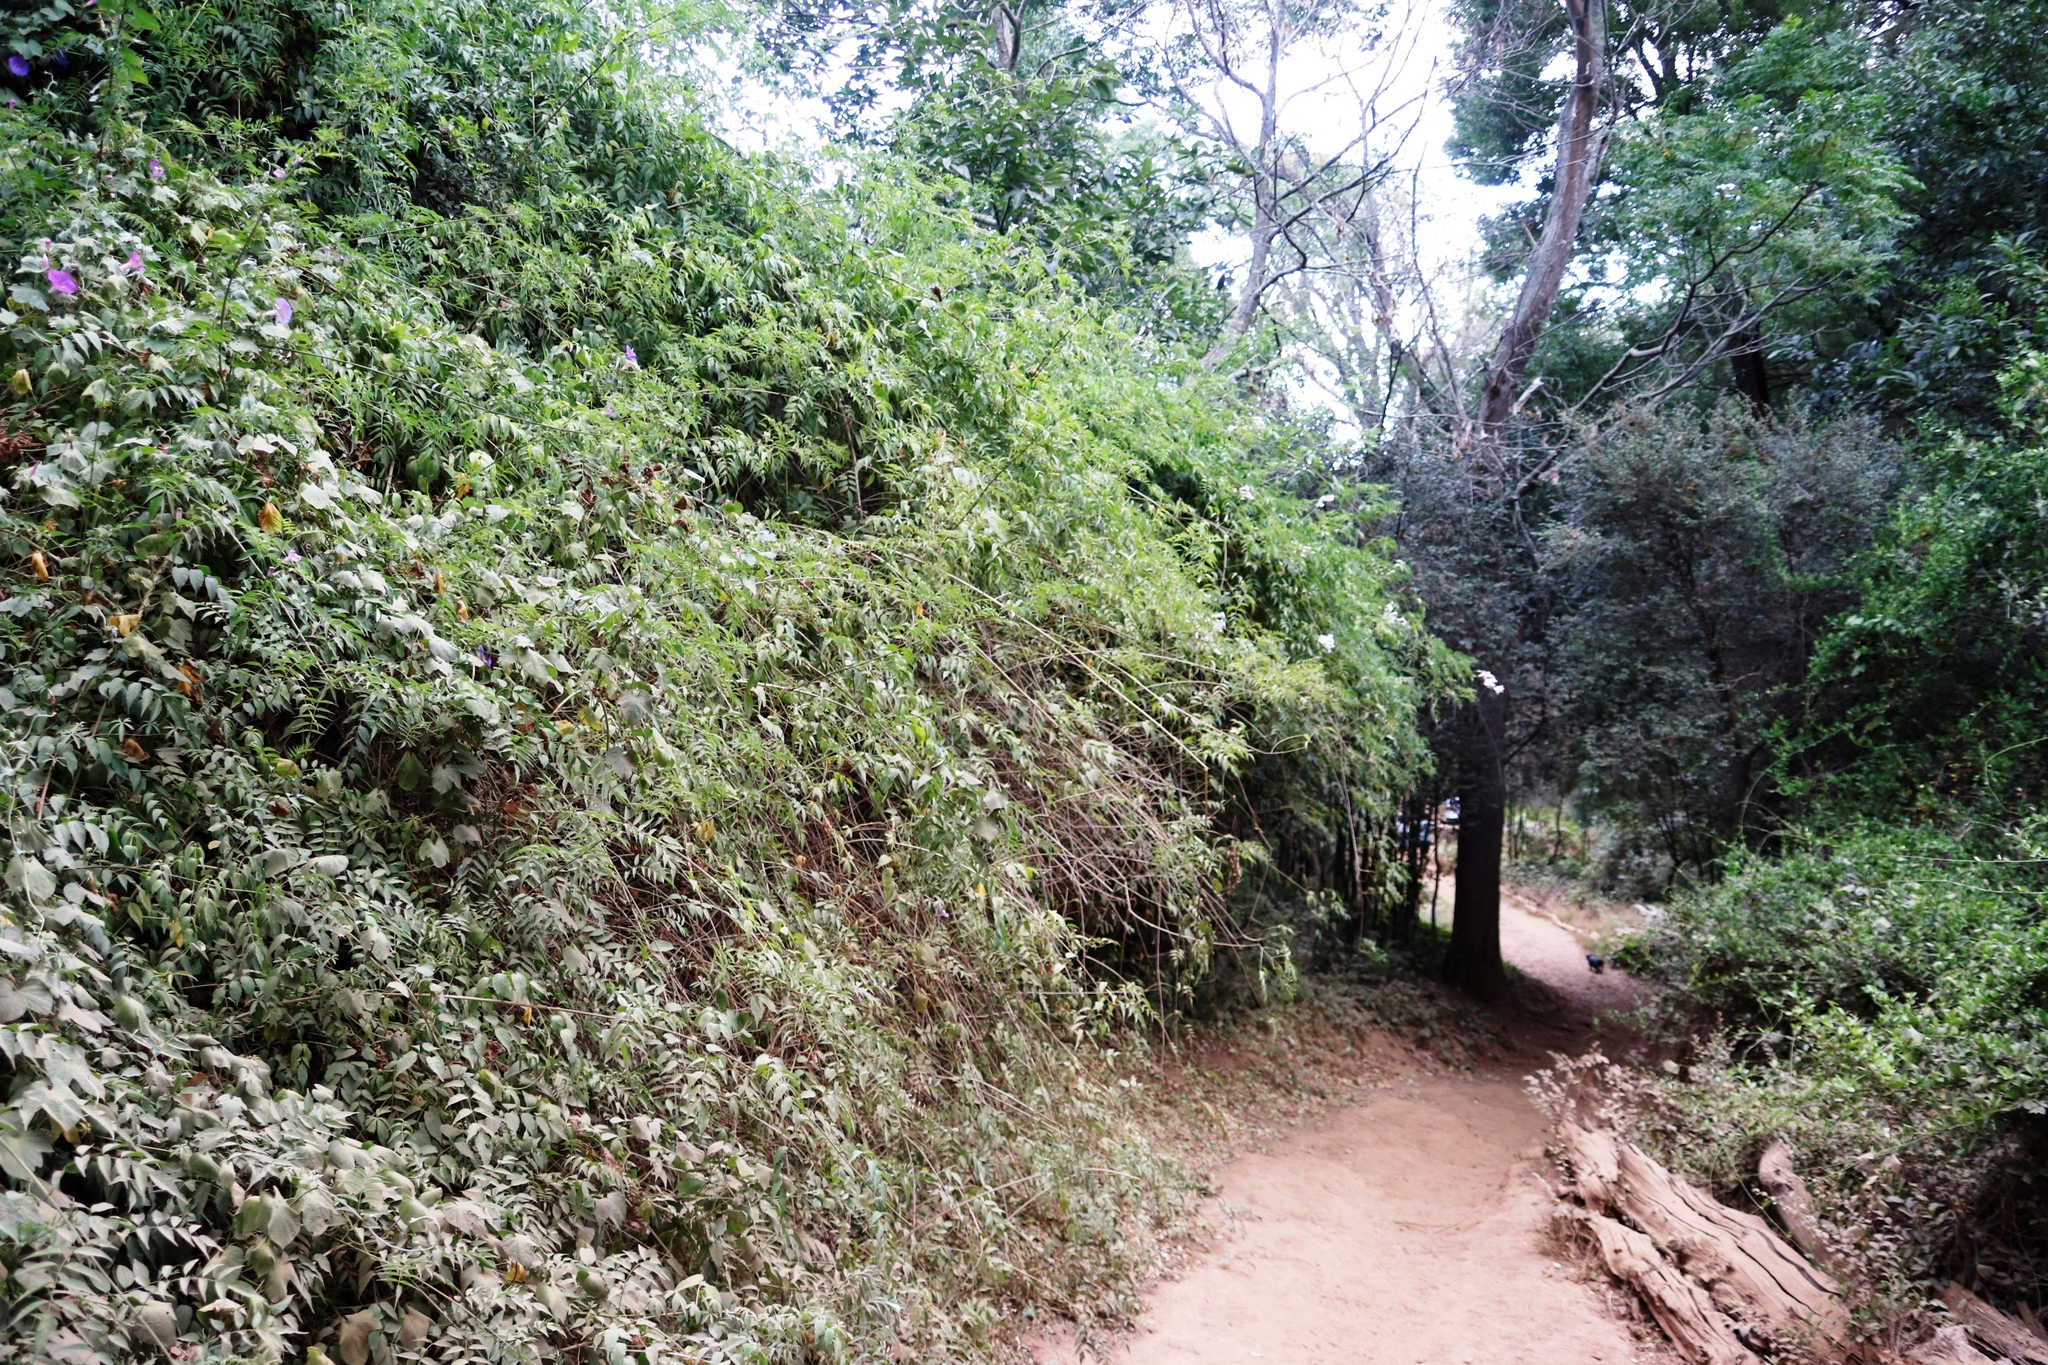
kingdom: Plantae
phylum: Tracheophyta
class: Magnoliopsida
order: Lamiales
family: Bignoniaceae
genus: Podranea
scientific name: Podranea ricasoliana
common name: Zimbabwe creeper
